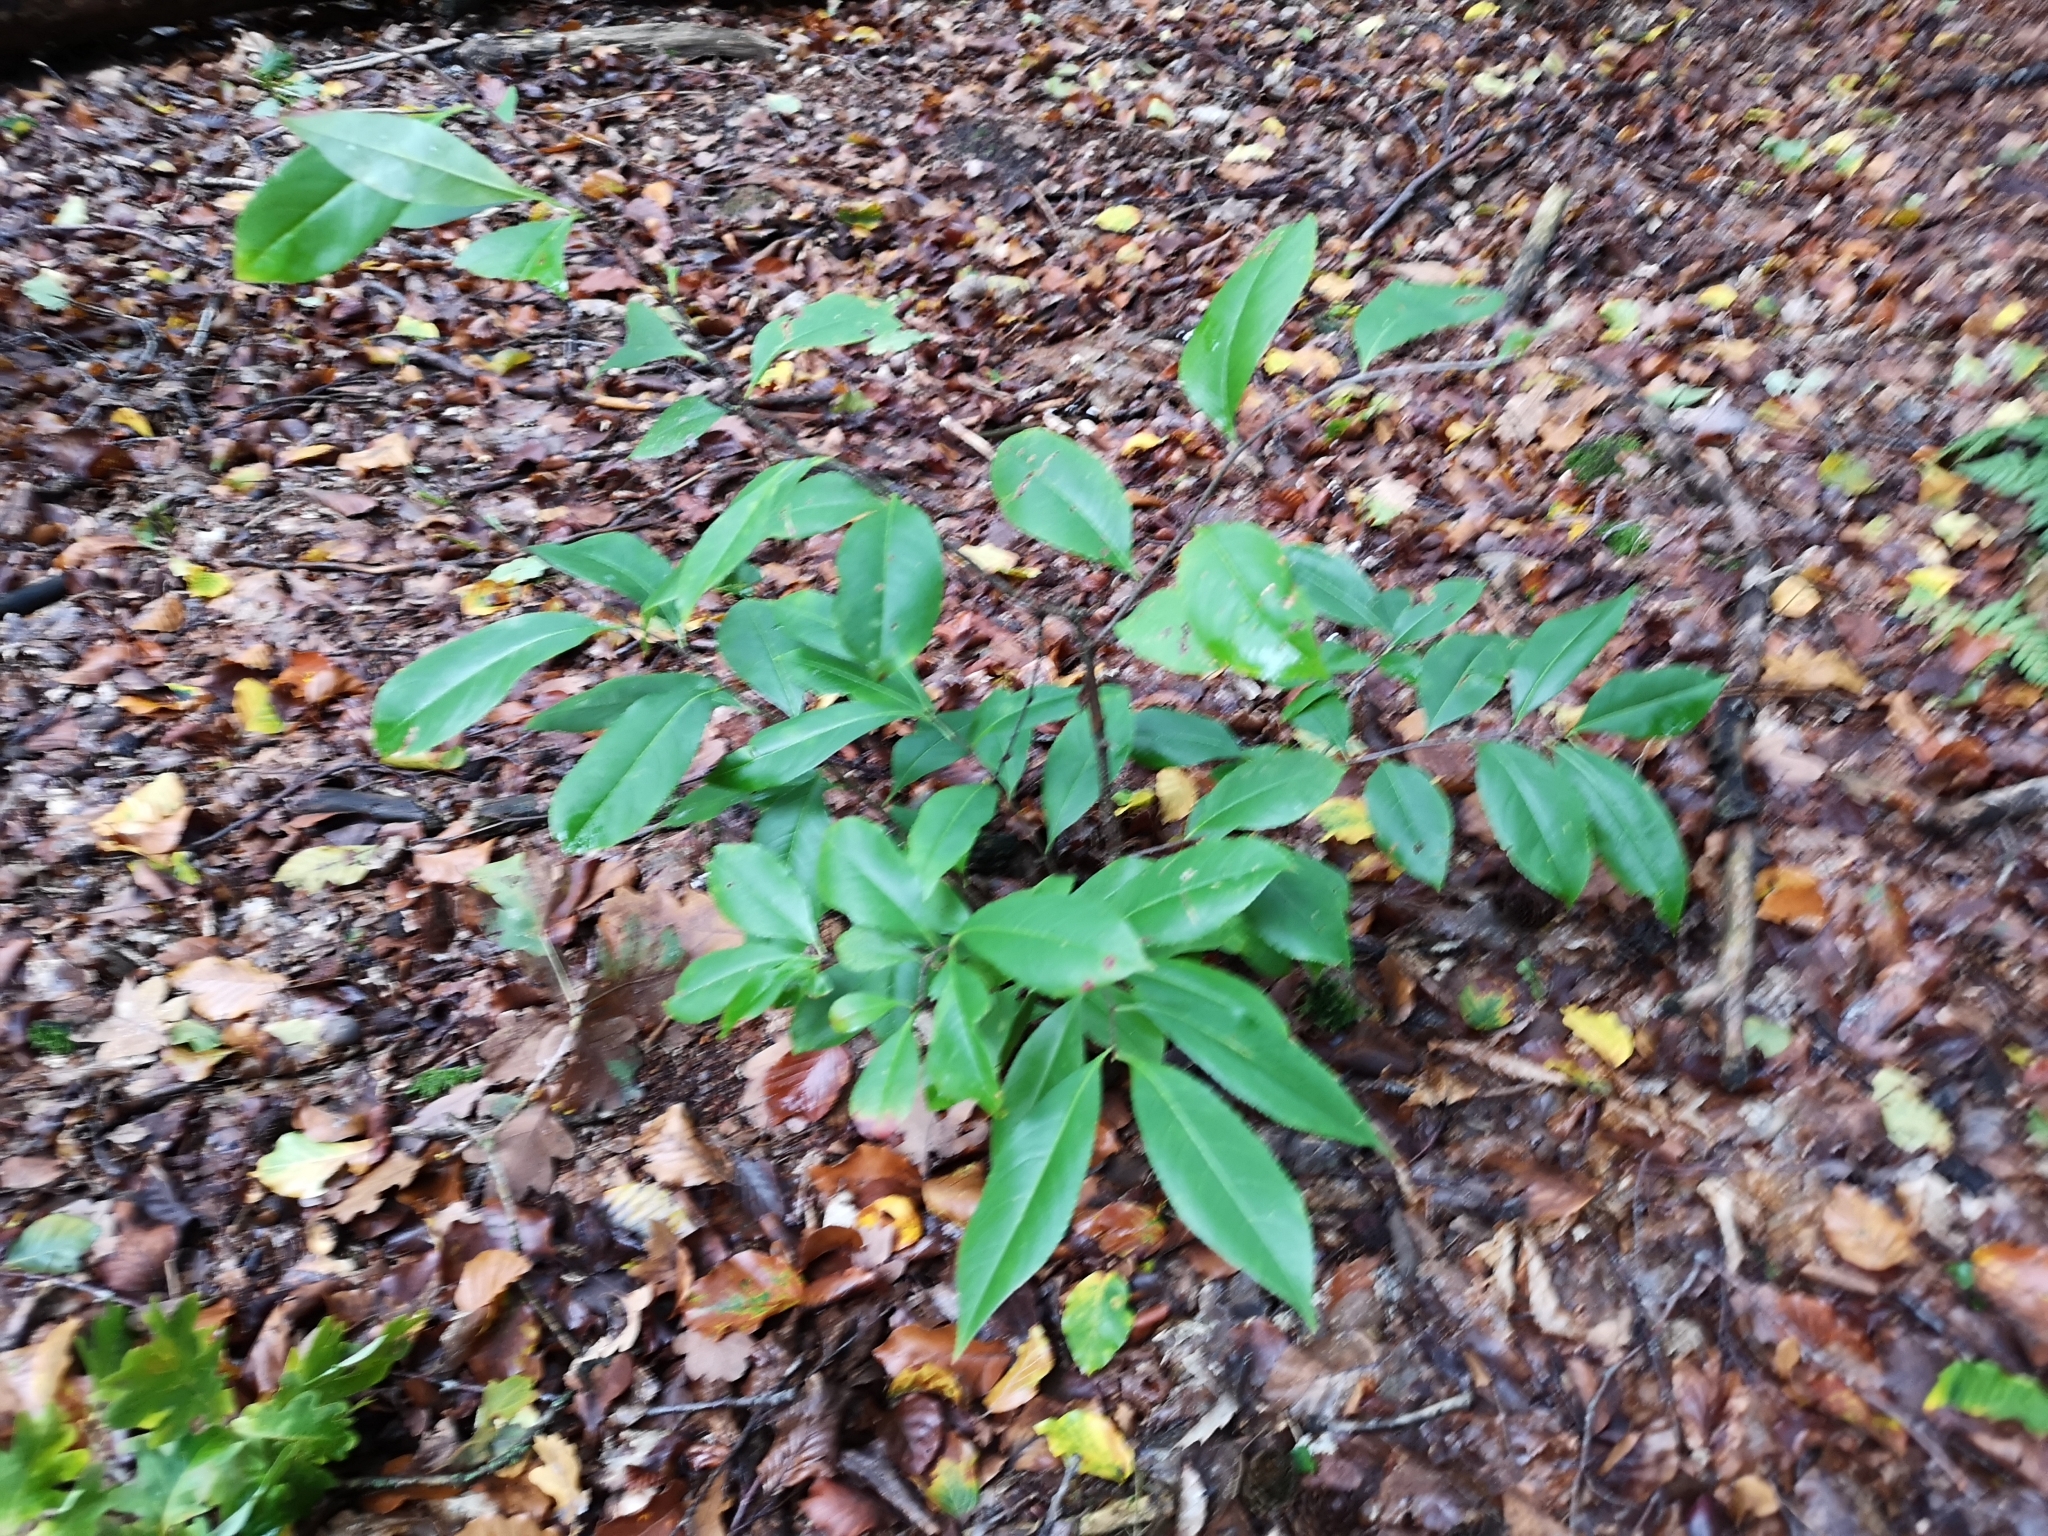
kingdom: Plantae
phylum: Tracheophyta
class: Magnoliopsida
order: Rosales
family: Rosaceae
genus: Prunus
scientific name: Prunus serotina
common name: Black cherry
